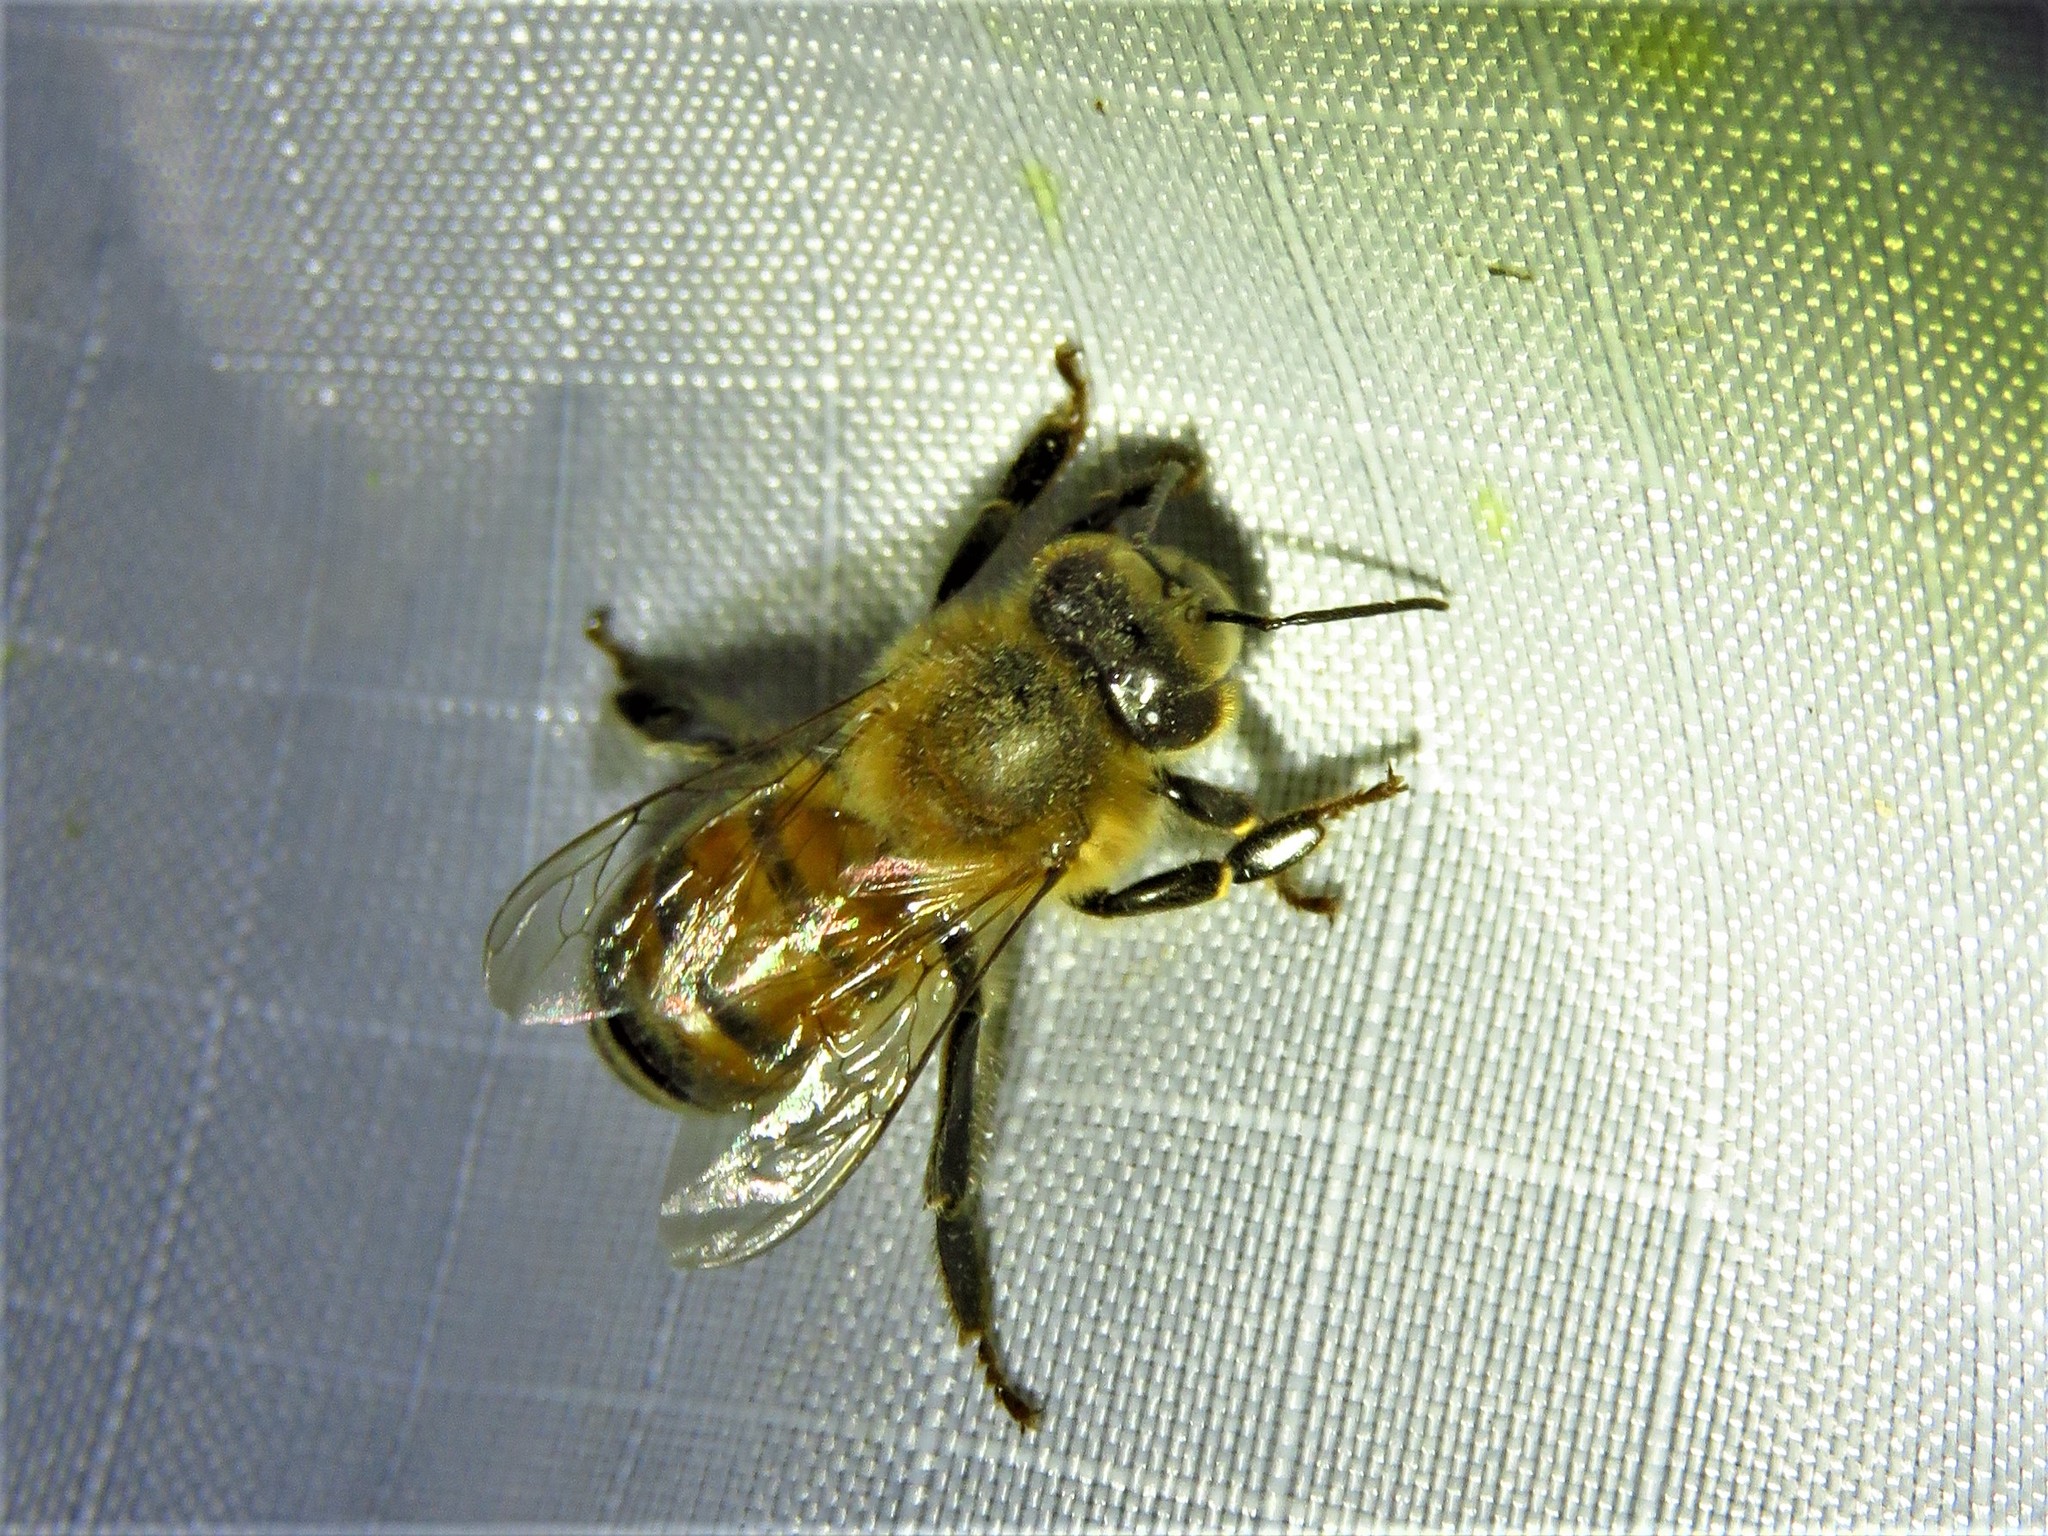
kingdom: Animalia
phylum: Arthropoda
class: Insecta
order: Hymenoptera
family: Apidae
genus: Apis
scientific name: Apis mellifera
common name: Honey bee
